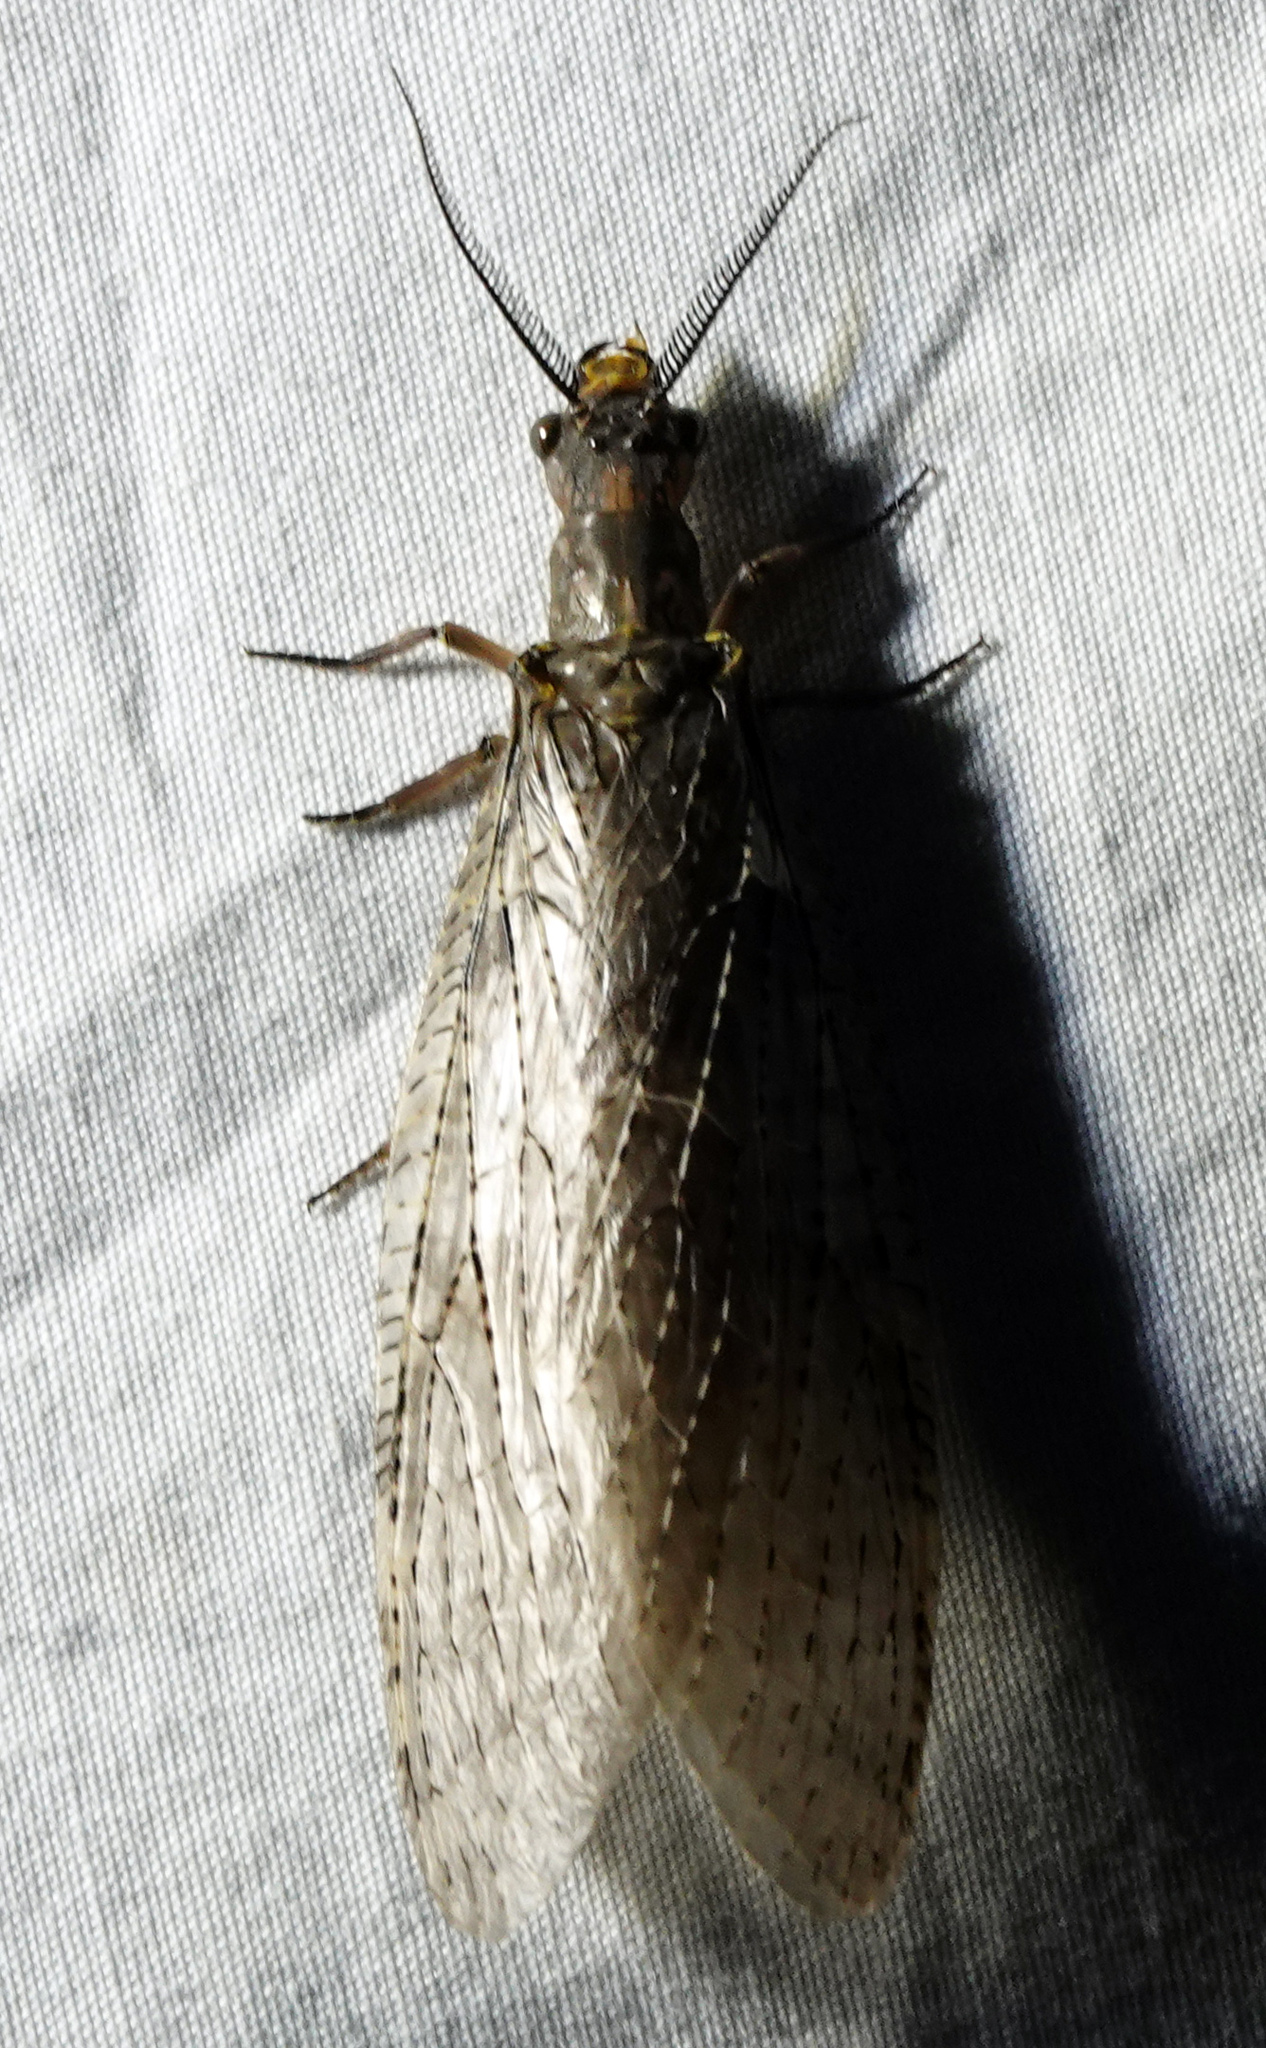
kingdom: Animalia
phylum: Arthropoda
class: Insecta
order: Megaloptera
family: Corydalidae
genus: Chauliodes
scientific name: Chauliodes pectinicornis
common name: Summer fishfly
